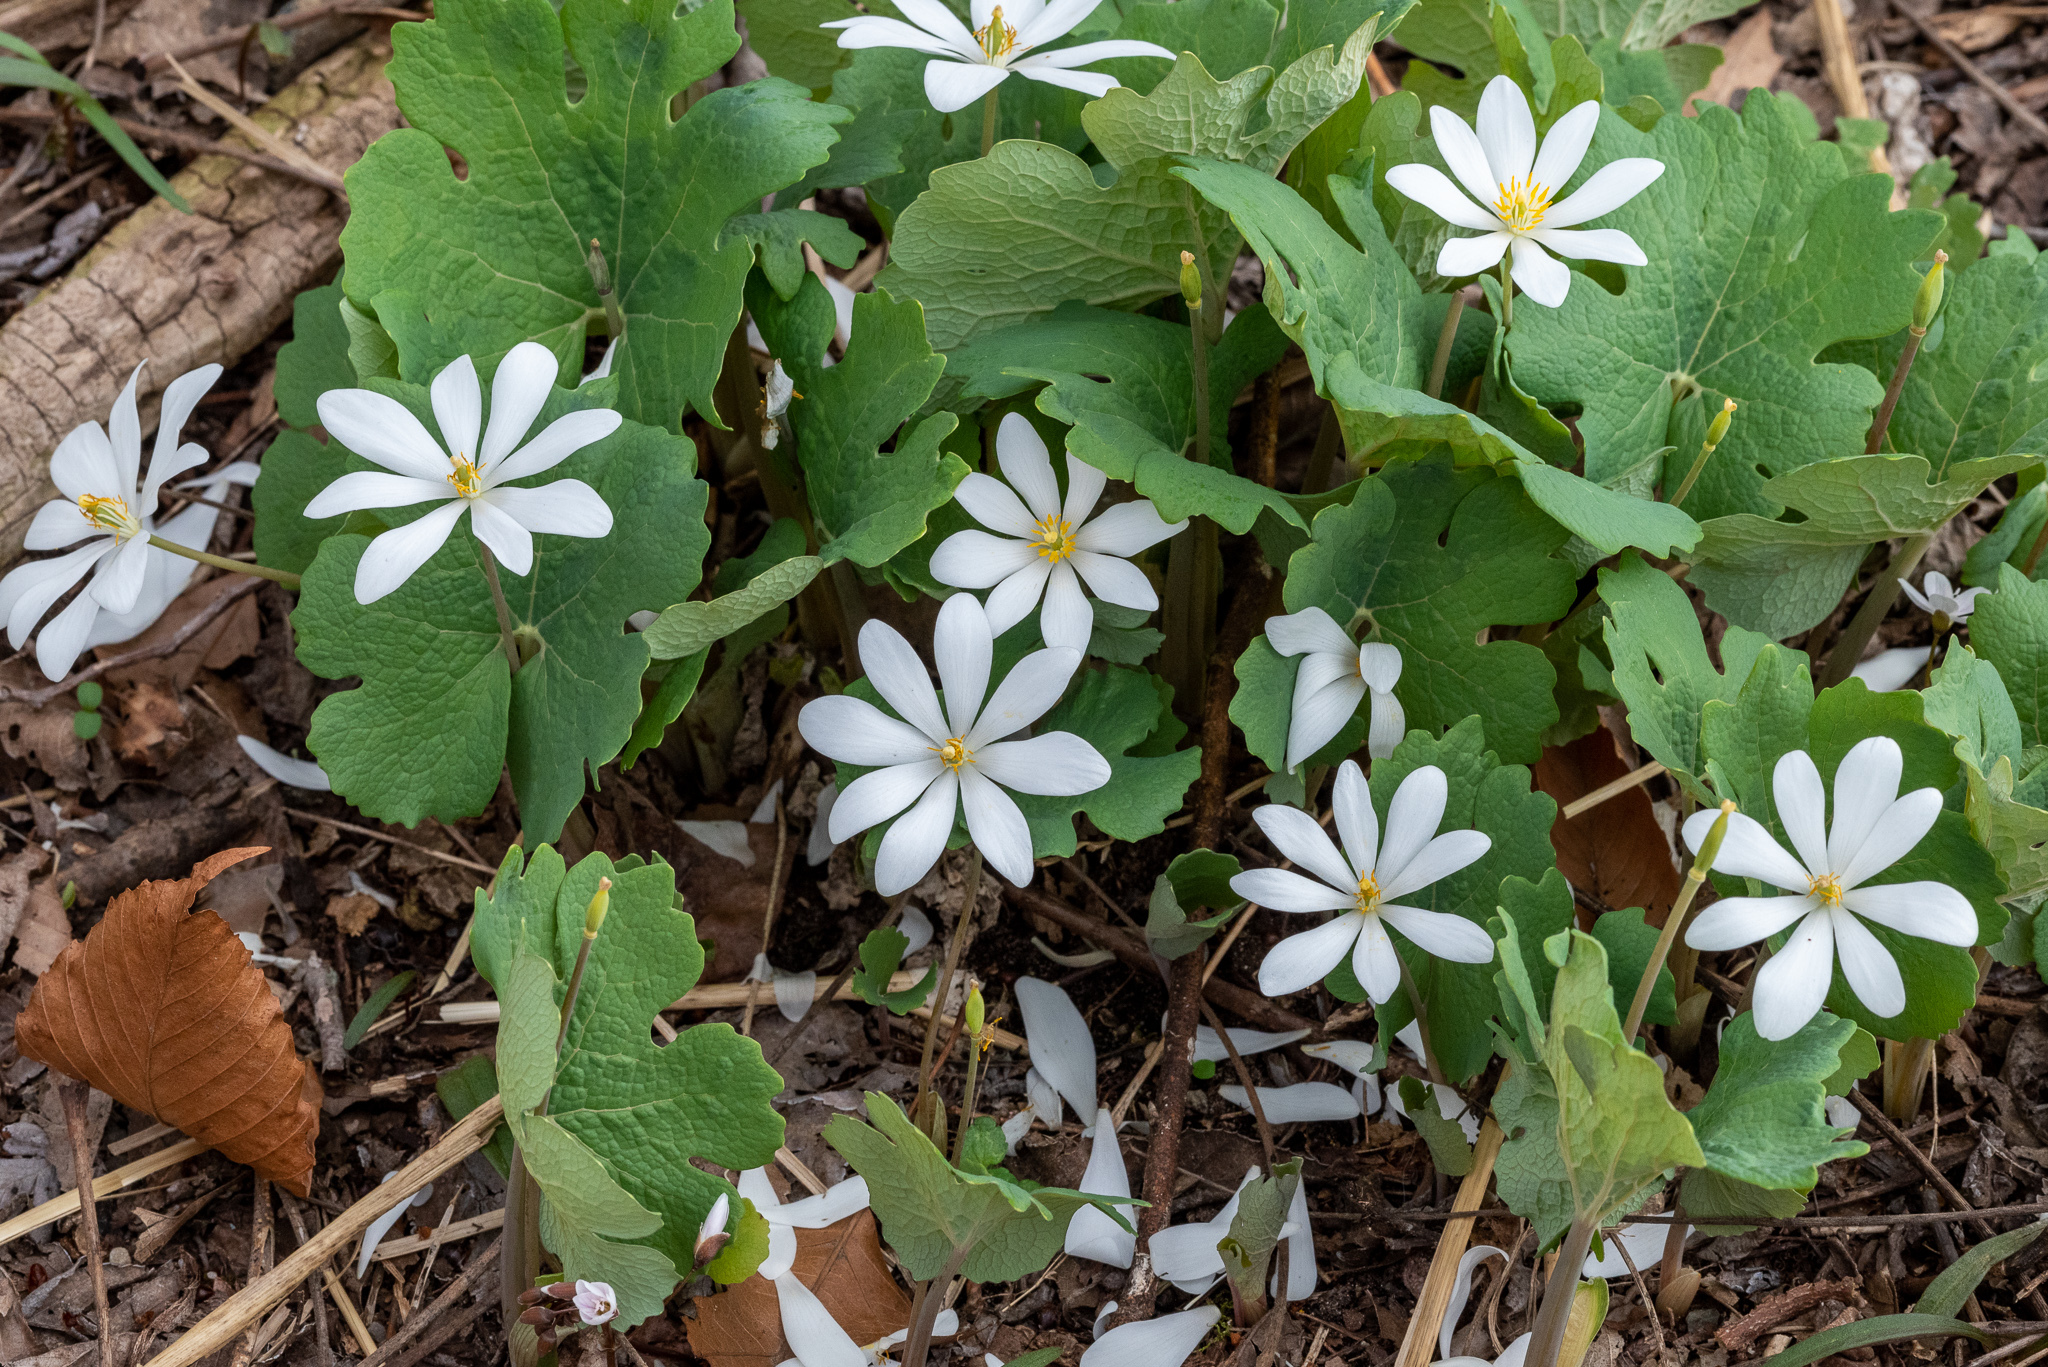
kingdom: Plantae
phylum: Tracheophyta
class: Magnoliopsida
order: Ranunculales
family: Papaveraceae
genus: Sanguinaria
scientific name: Sanguinaria canadensis
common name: Bloodroot
